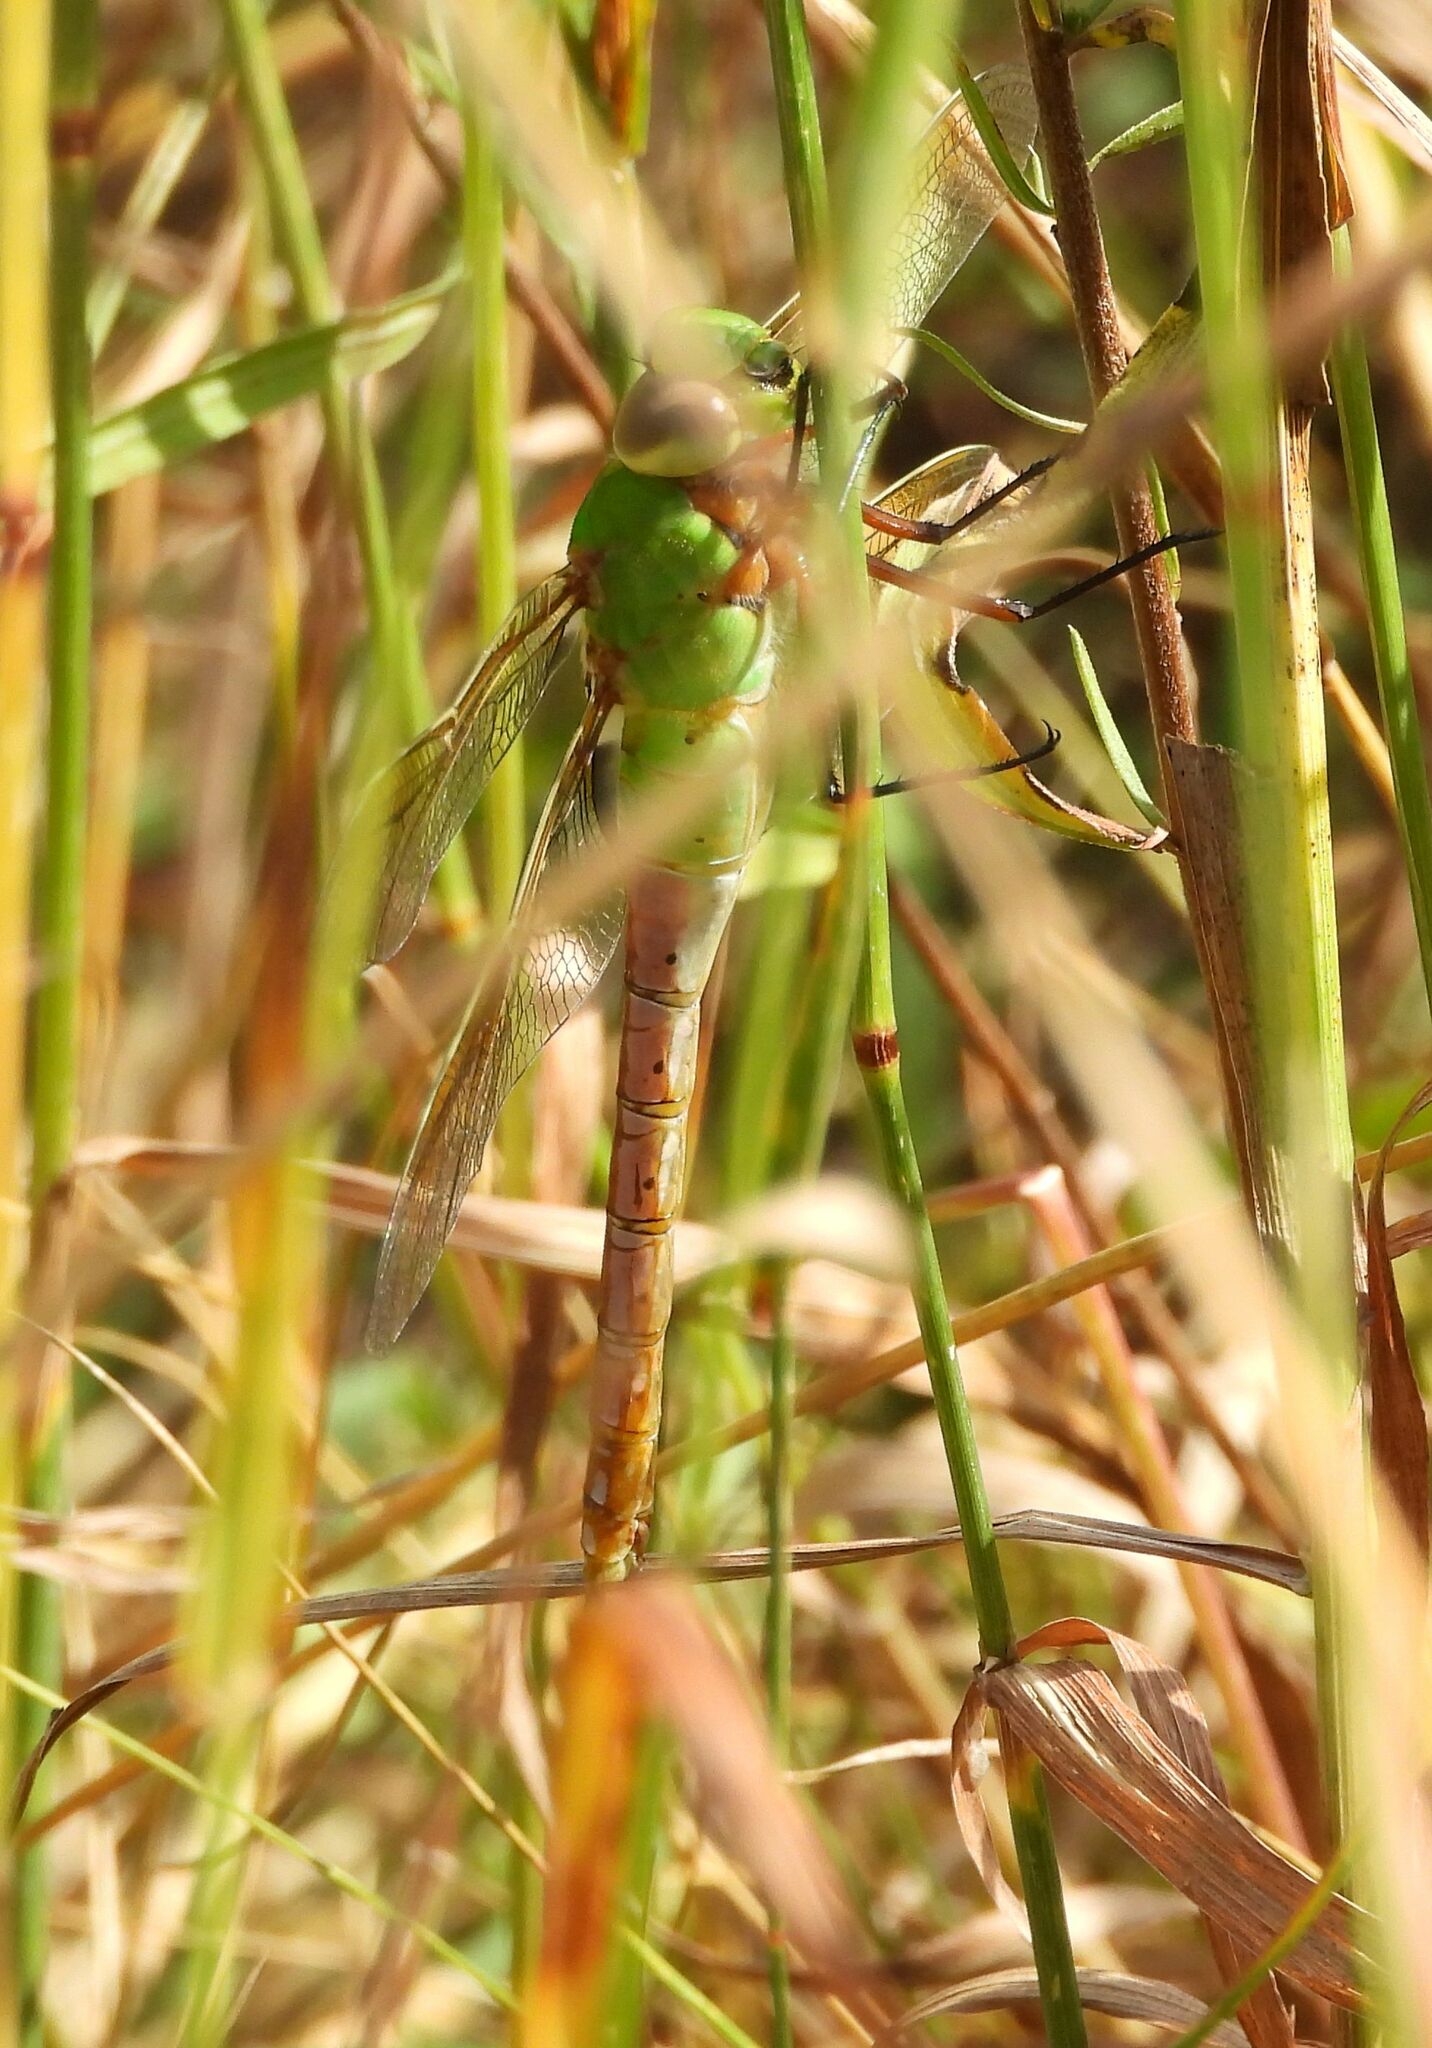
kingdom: Animalia
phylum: Arthropoda
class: Insecta
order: Odonata
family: Aeshnidae
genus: Anax
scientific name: Anax junius
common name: Common green darner
